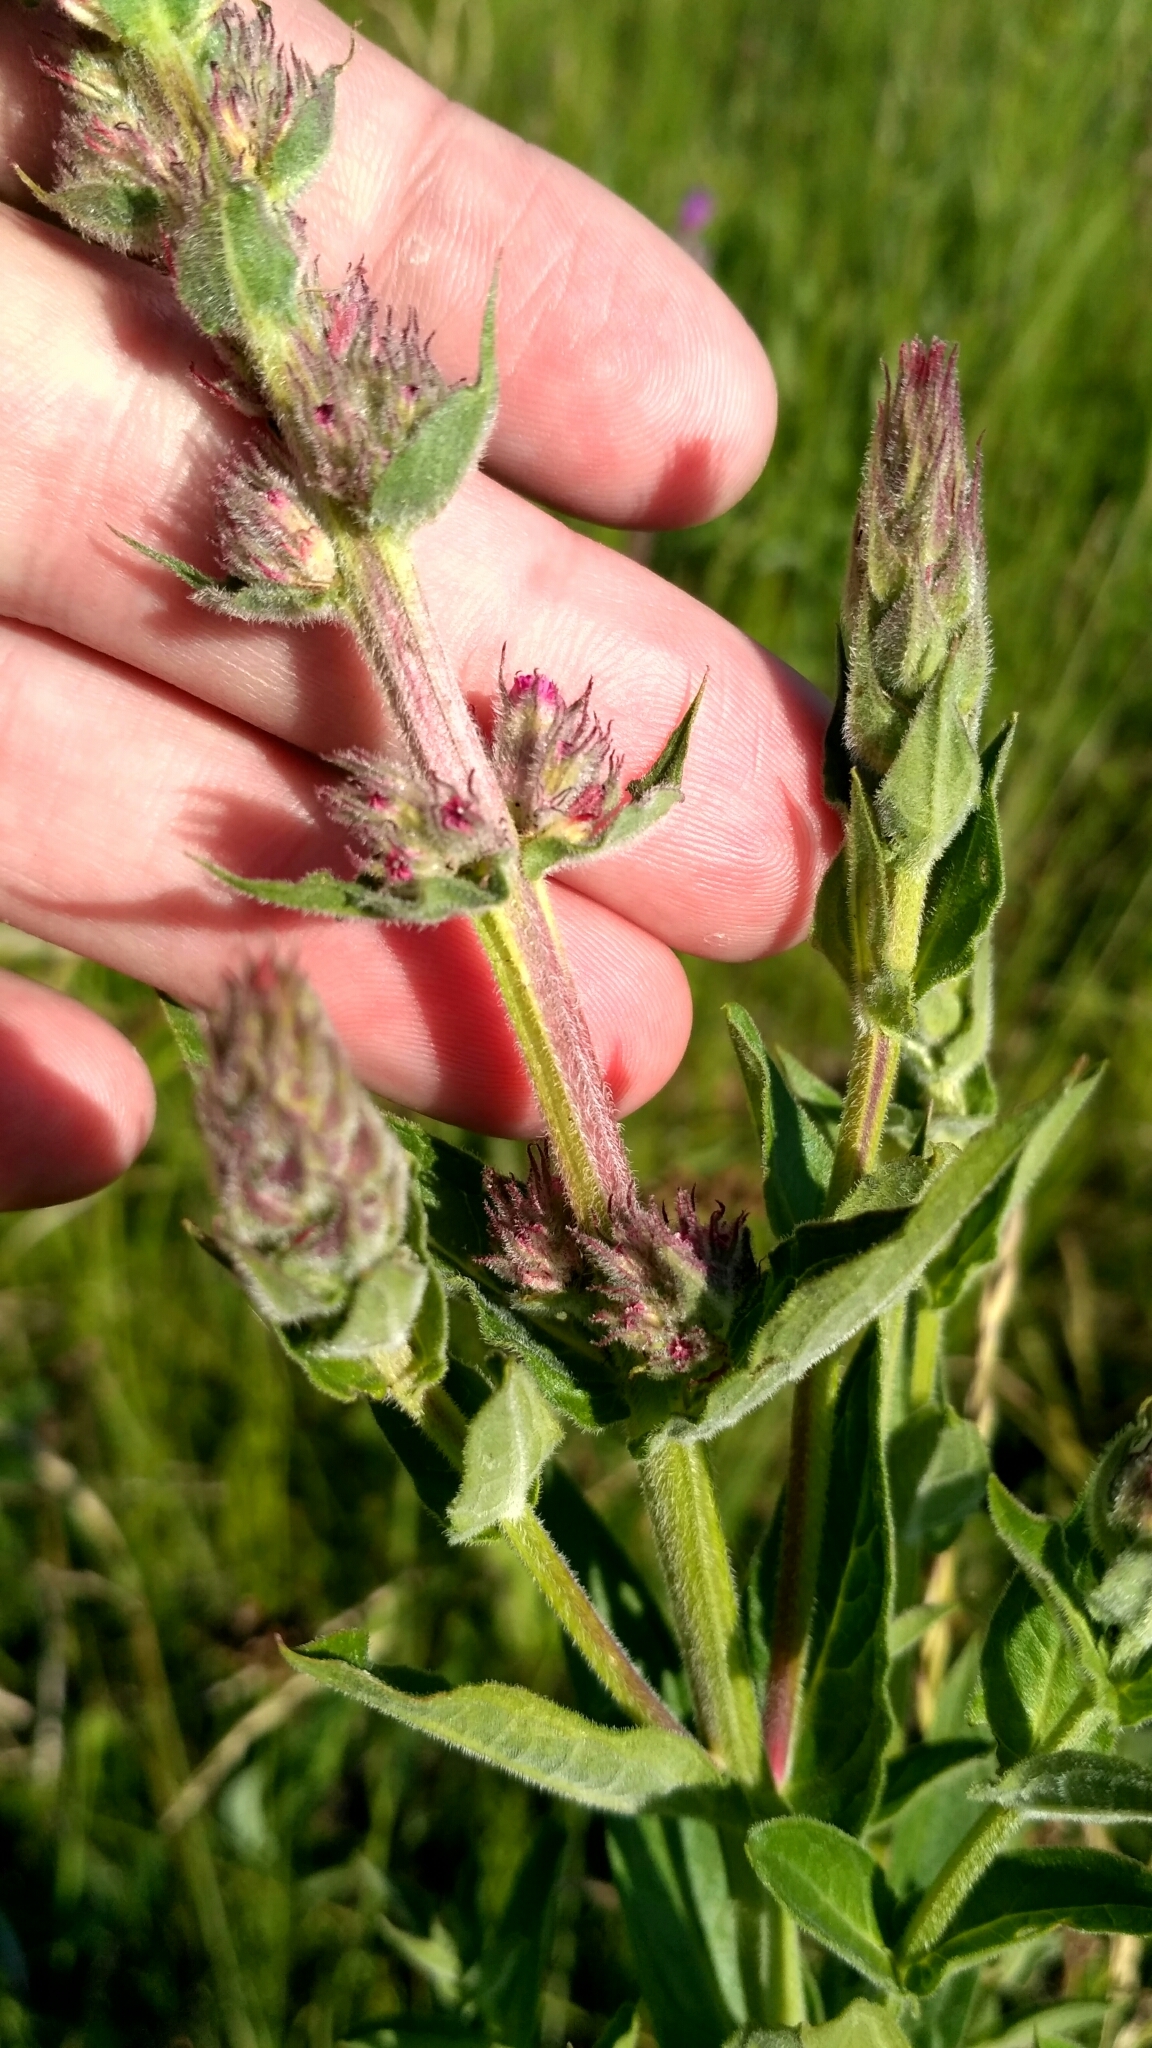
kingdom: Plantae
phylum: Tracheophyta
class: Magnoliopsida
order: Myrtales
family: Lythraceae
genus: Lythrum
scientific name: Lythrum salicaria
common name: Purple loosestrife
